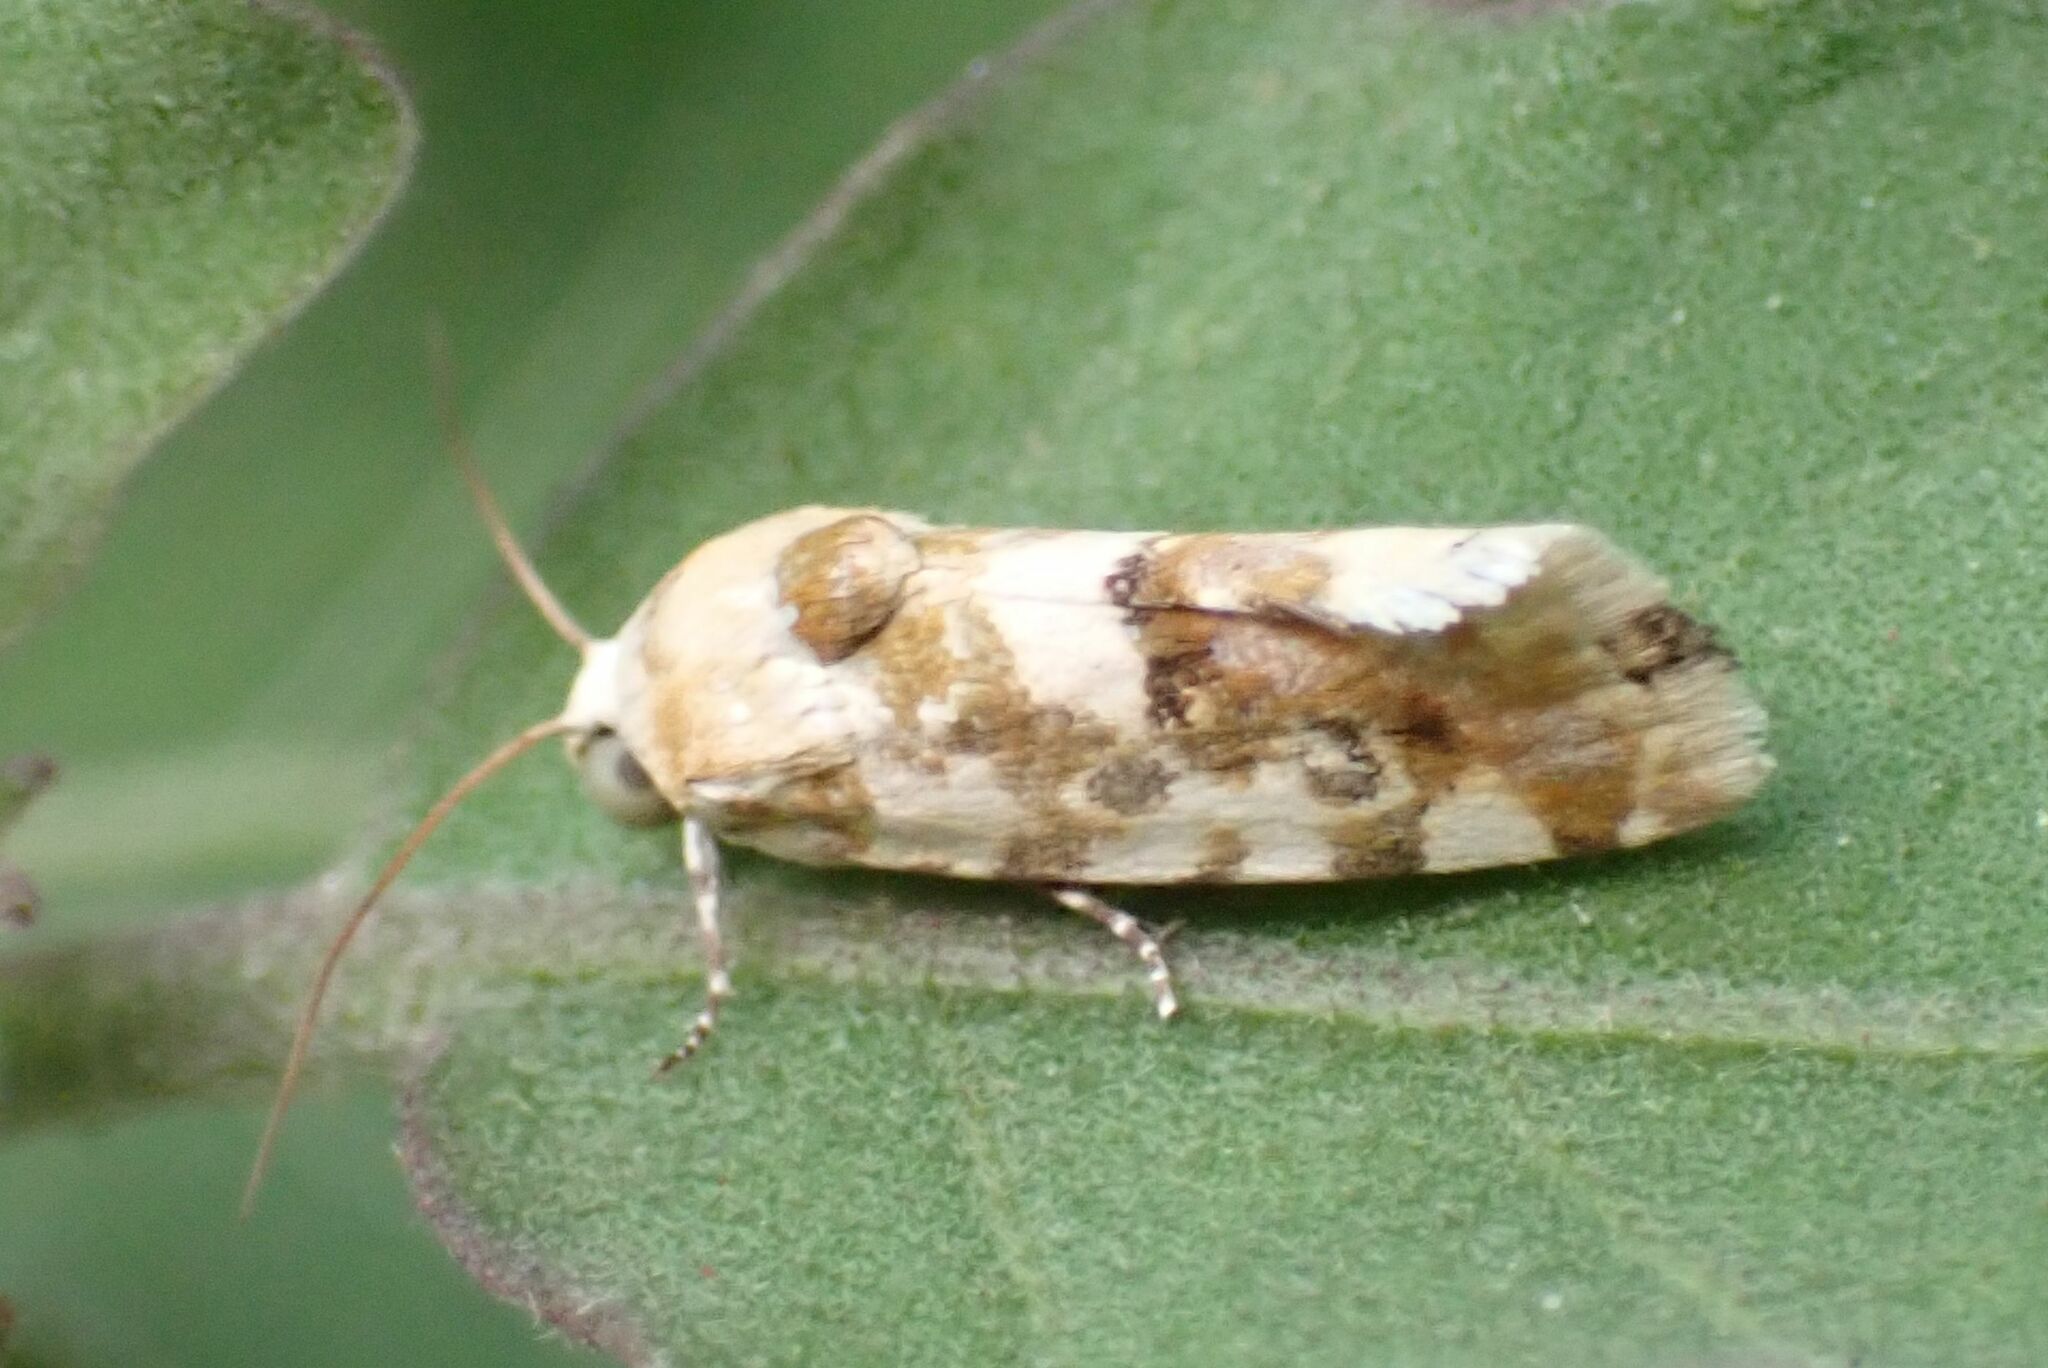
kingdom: Animalia
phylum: Arthropoda
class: Insecta
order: Lepidoptera
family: Noctuidae
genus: Acontia
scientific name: Acontia zelleri
